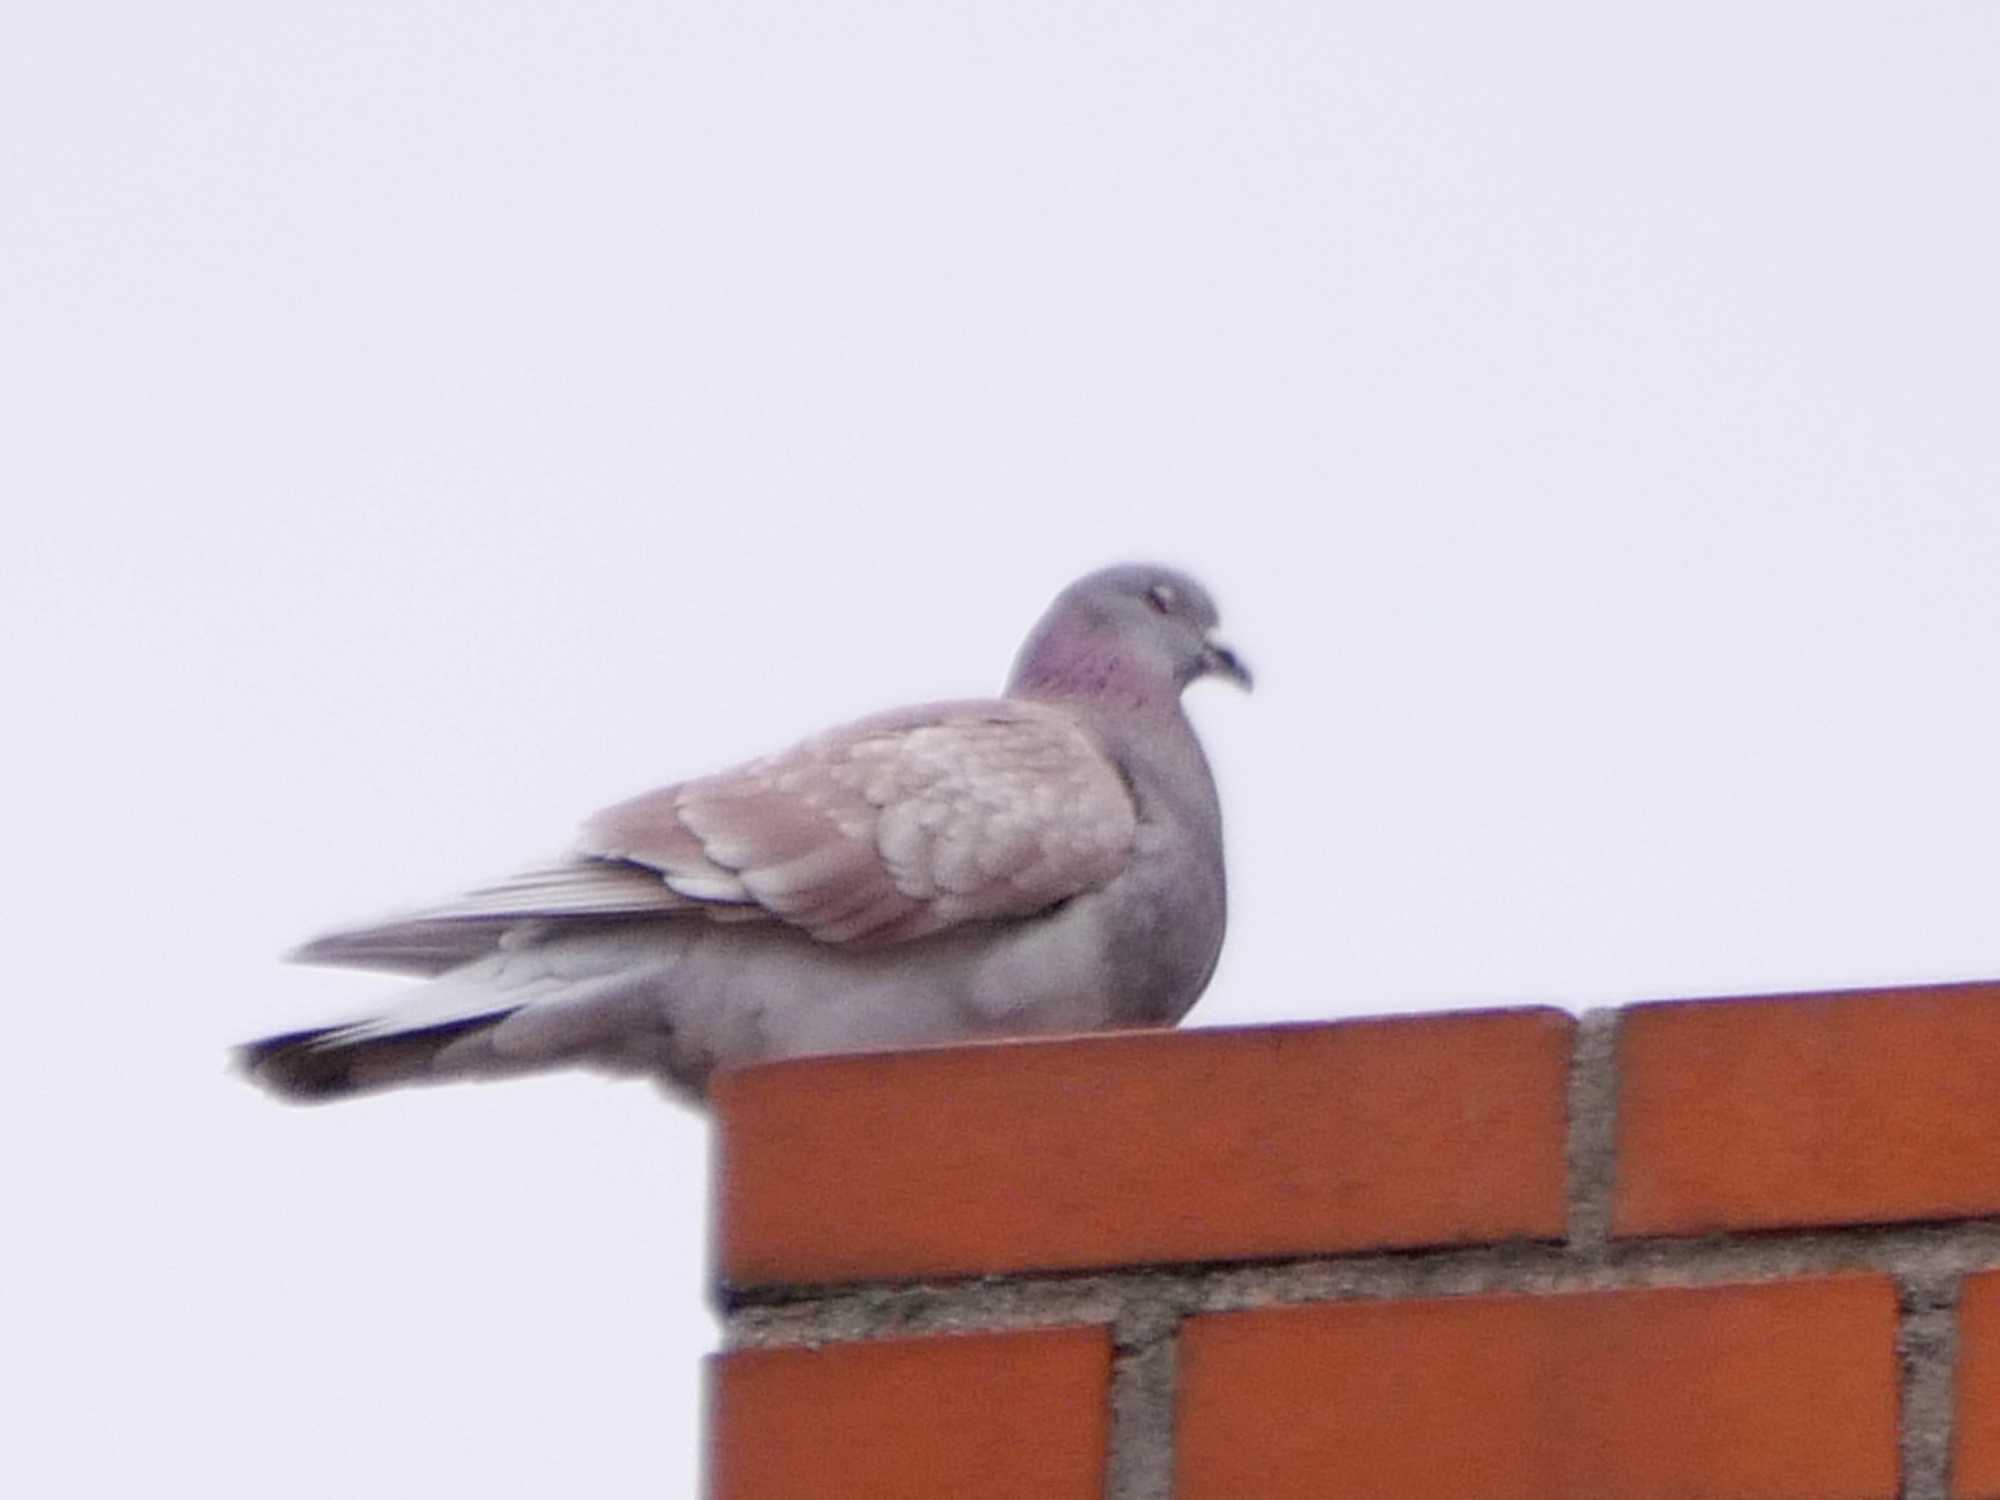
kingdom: Animalia
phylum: Chordata
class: Aves
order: Columbiformes
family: Columbidae
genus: Columba
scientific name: Columba livia
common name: Rock pigeon
